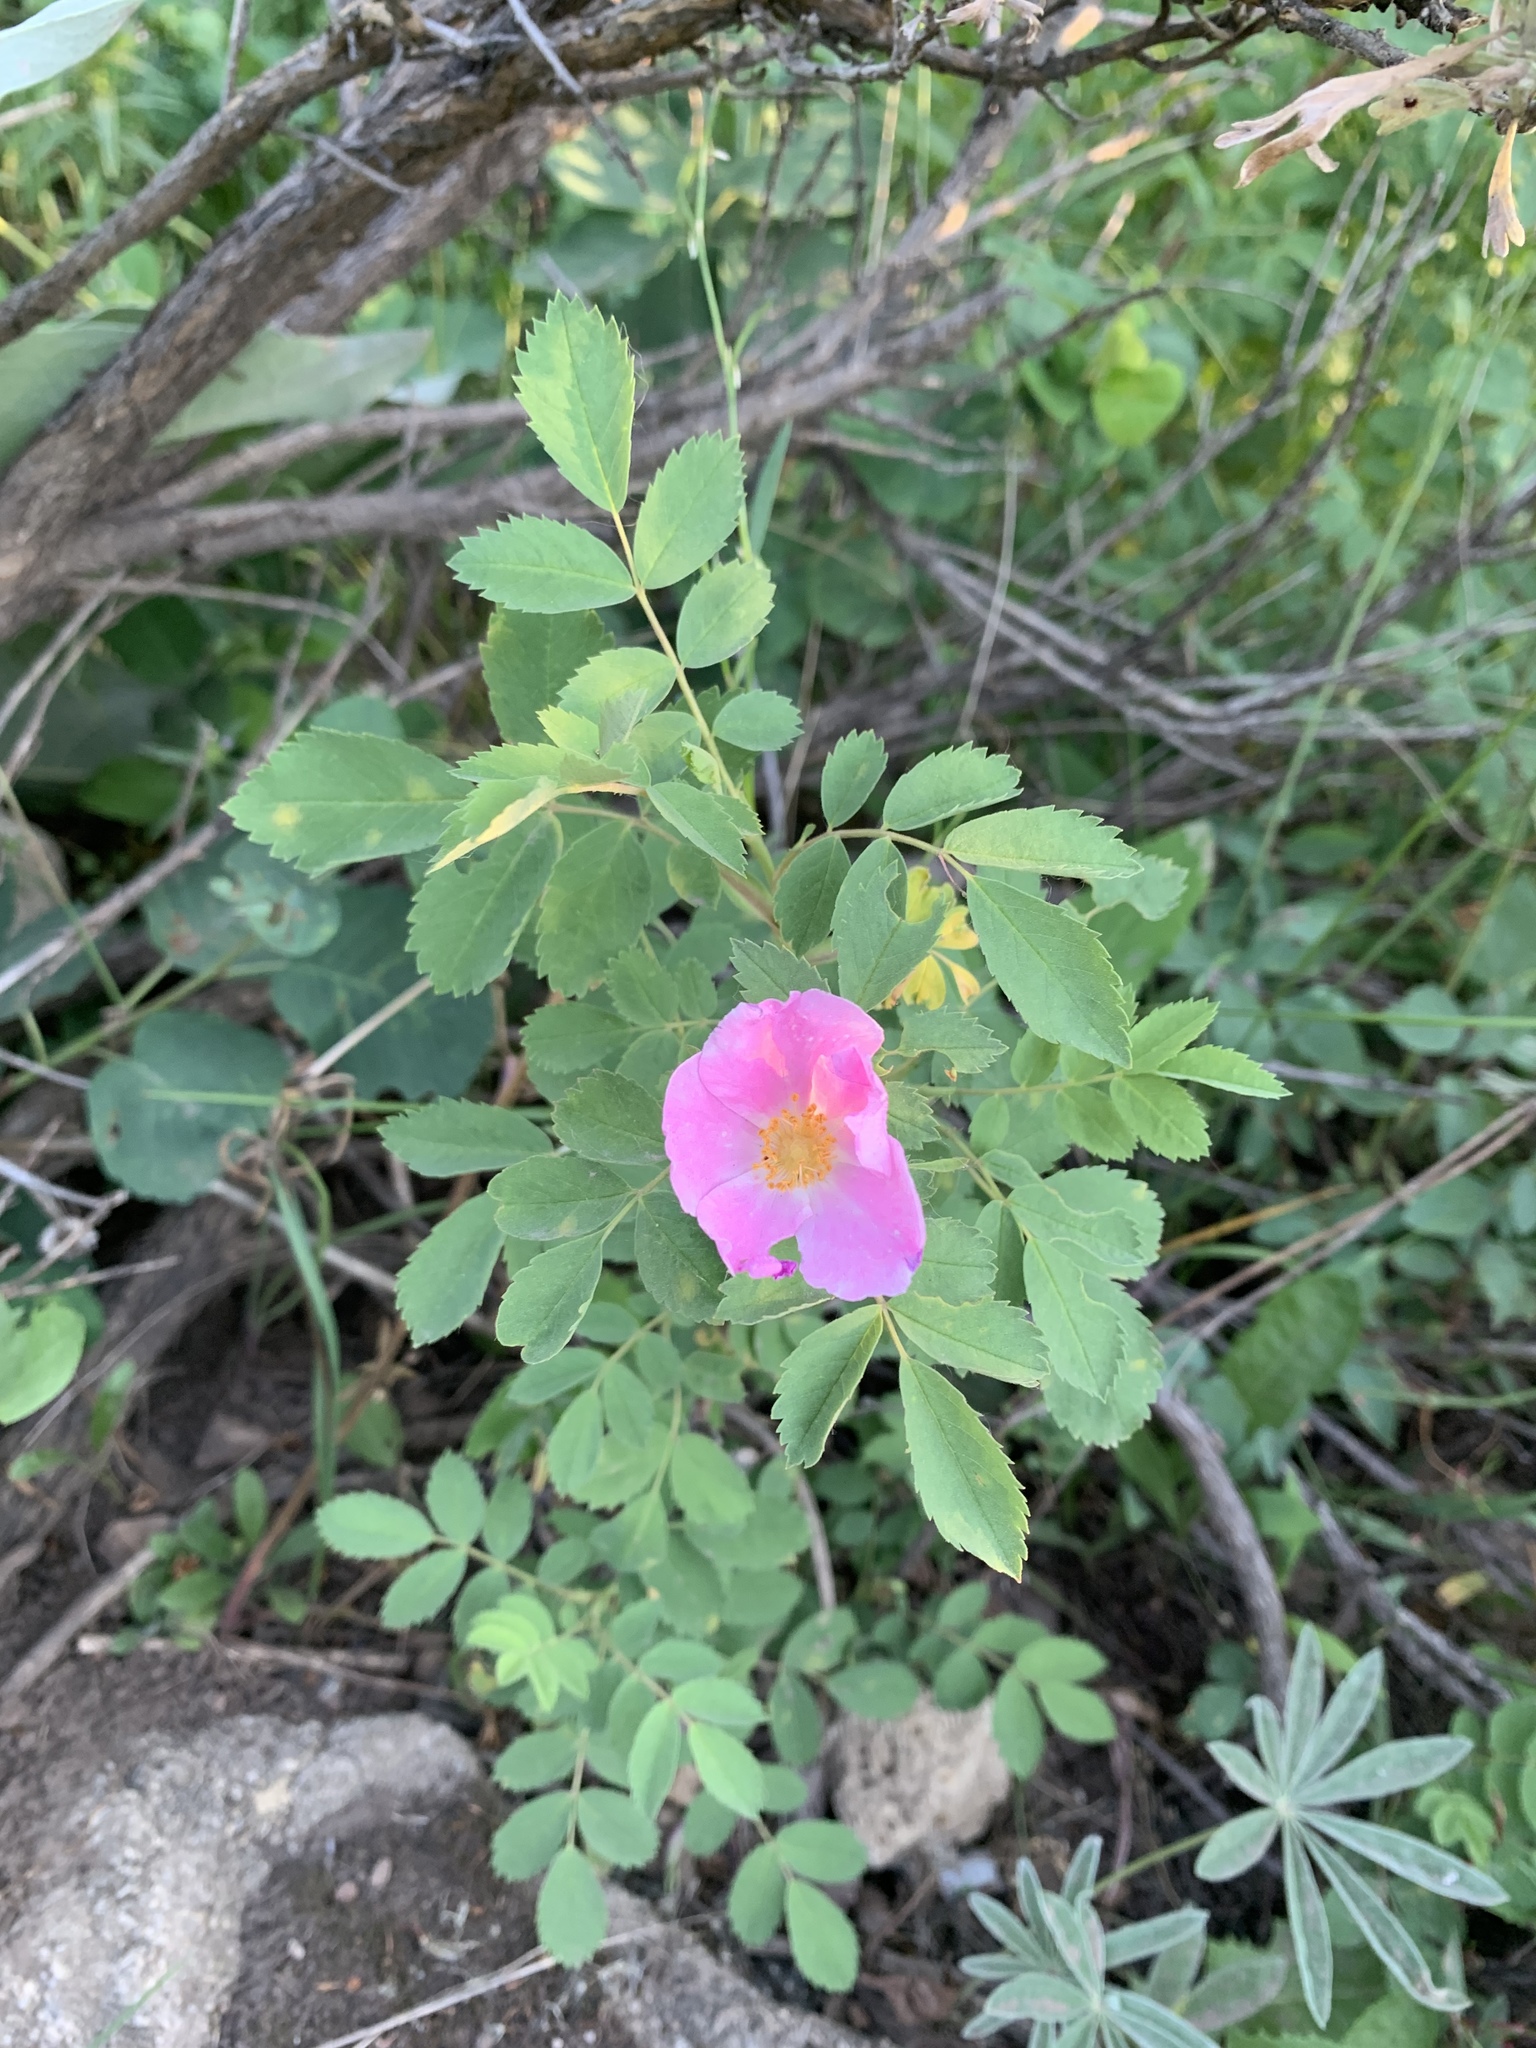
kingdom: Plantae
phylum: Tracheophyta
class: Magnoliopsida
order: Rosales
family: Rosaceae
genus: Rosa
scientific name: Rosa woodsii
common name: Woods's rose
